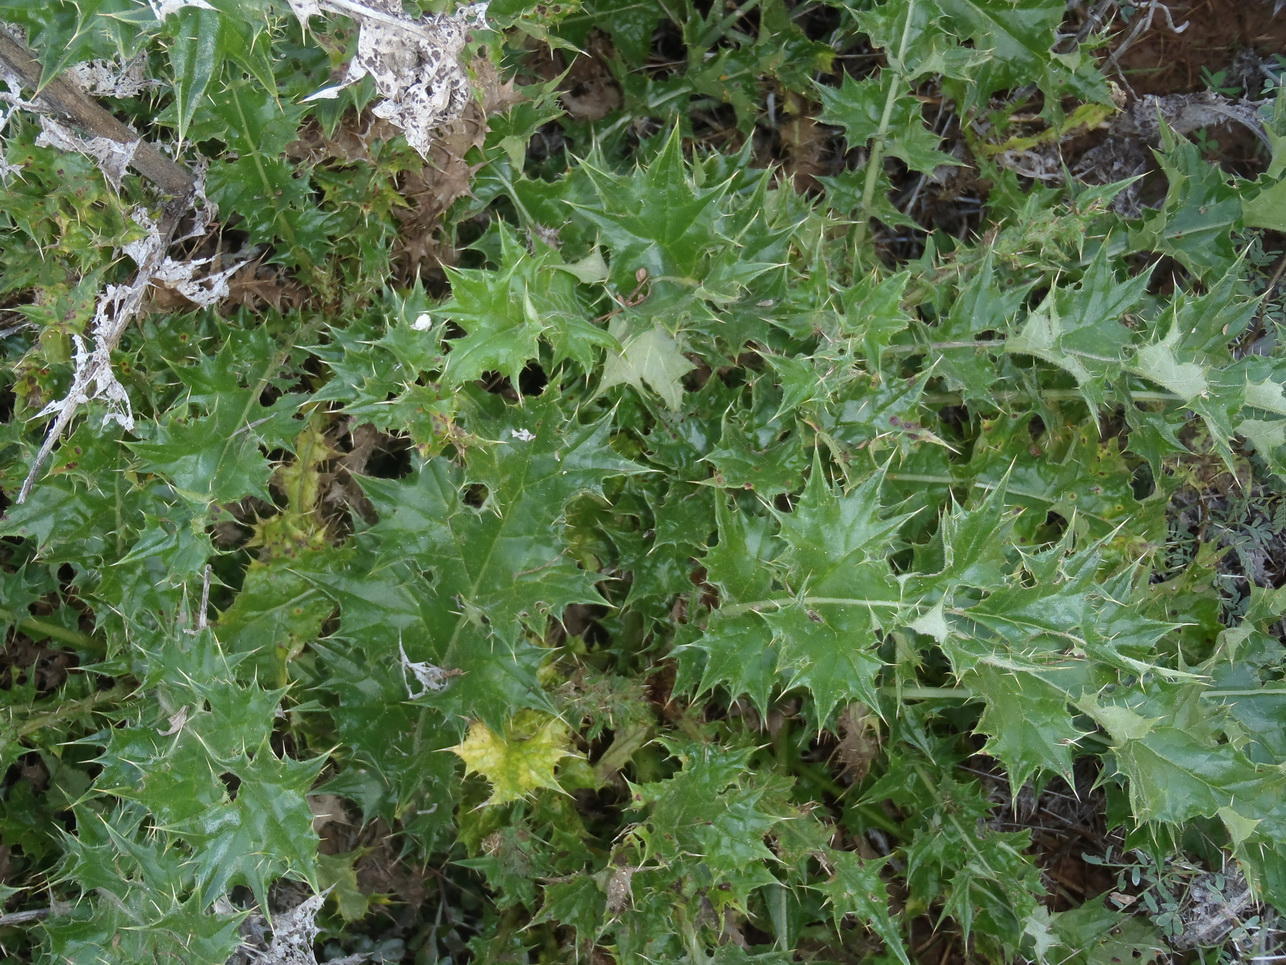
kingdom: Plantae
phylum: Tracheophyta
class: Magnoliopsida
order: Asterales
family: Asteraceae
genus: Berkheya
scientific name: Berkheya rigida
